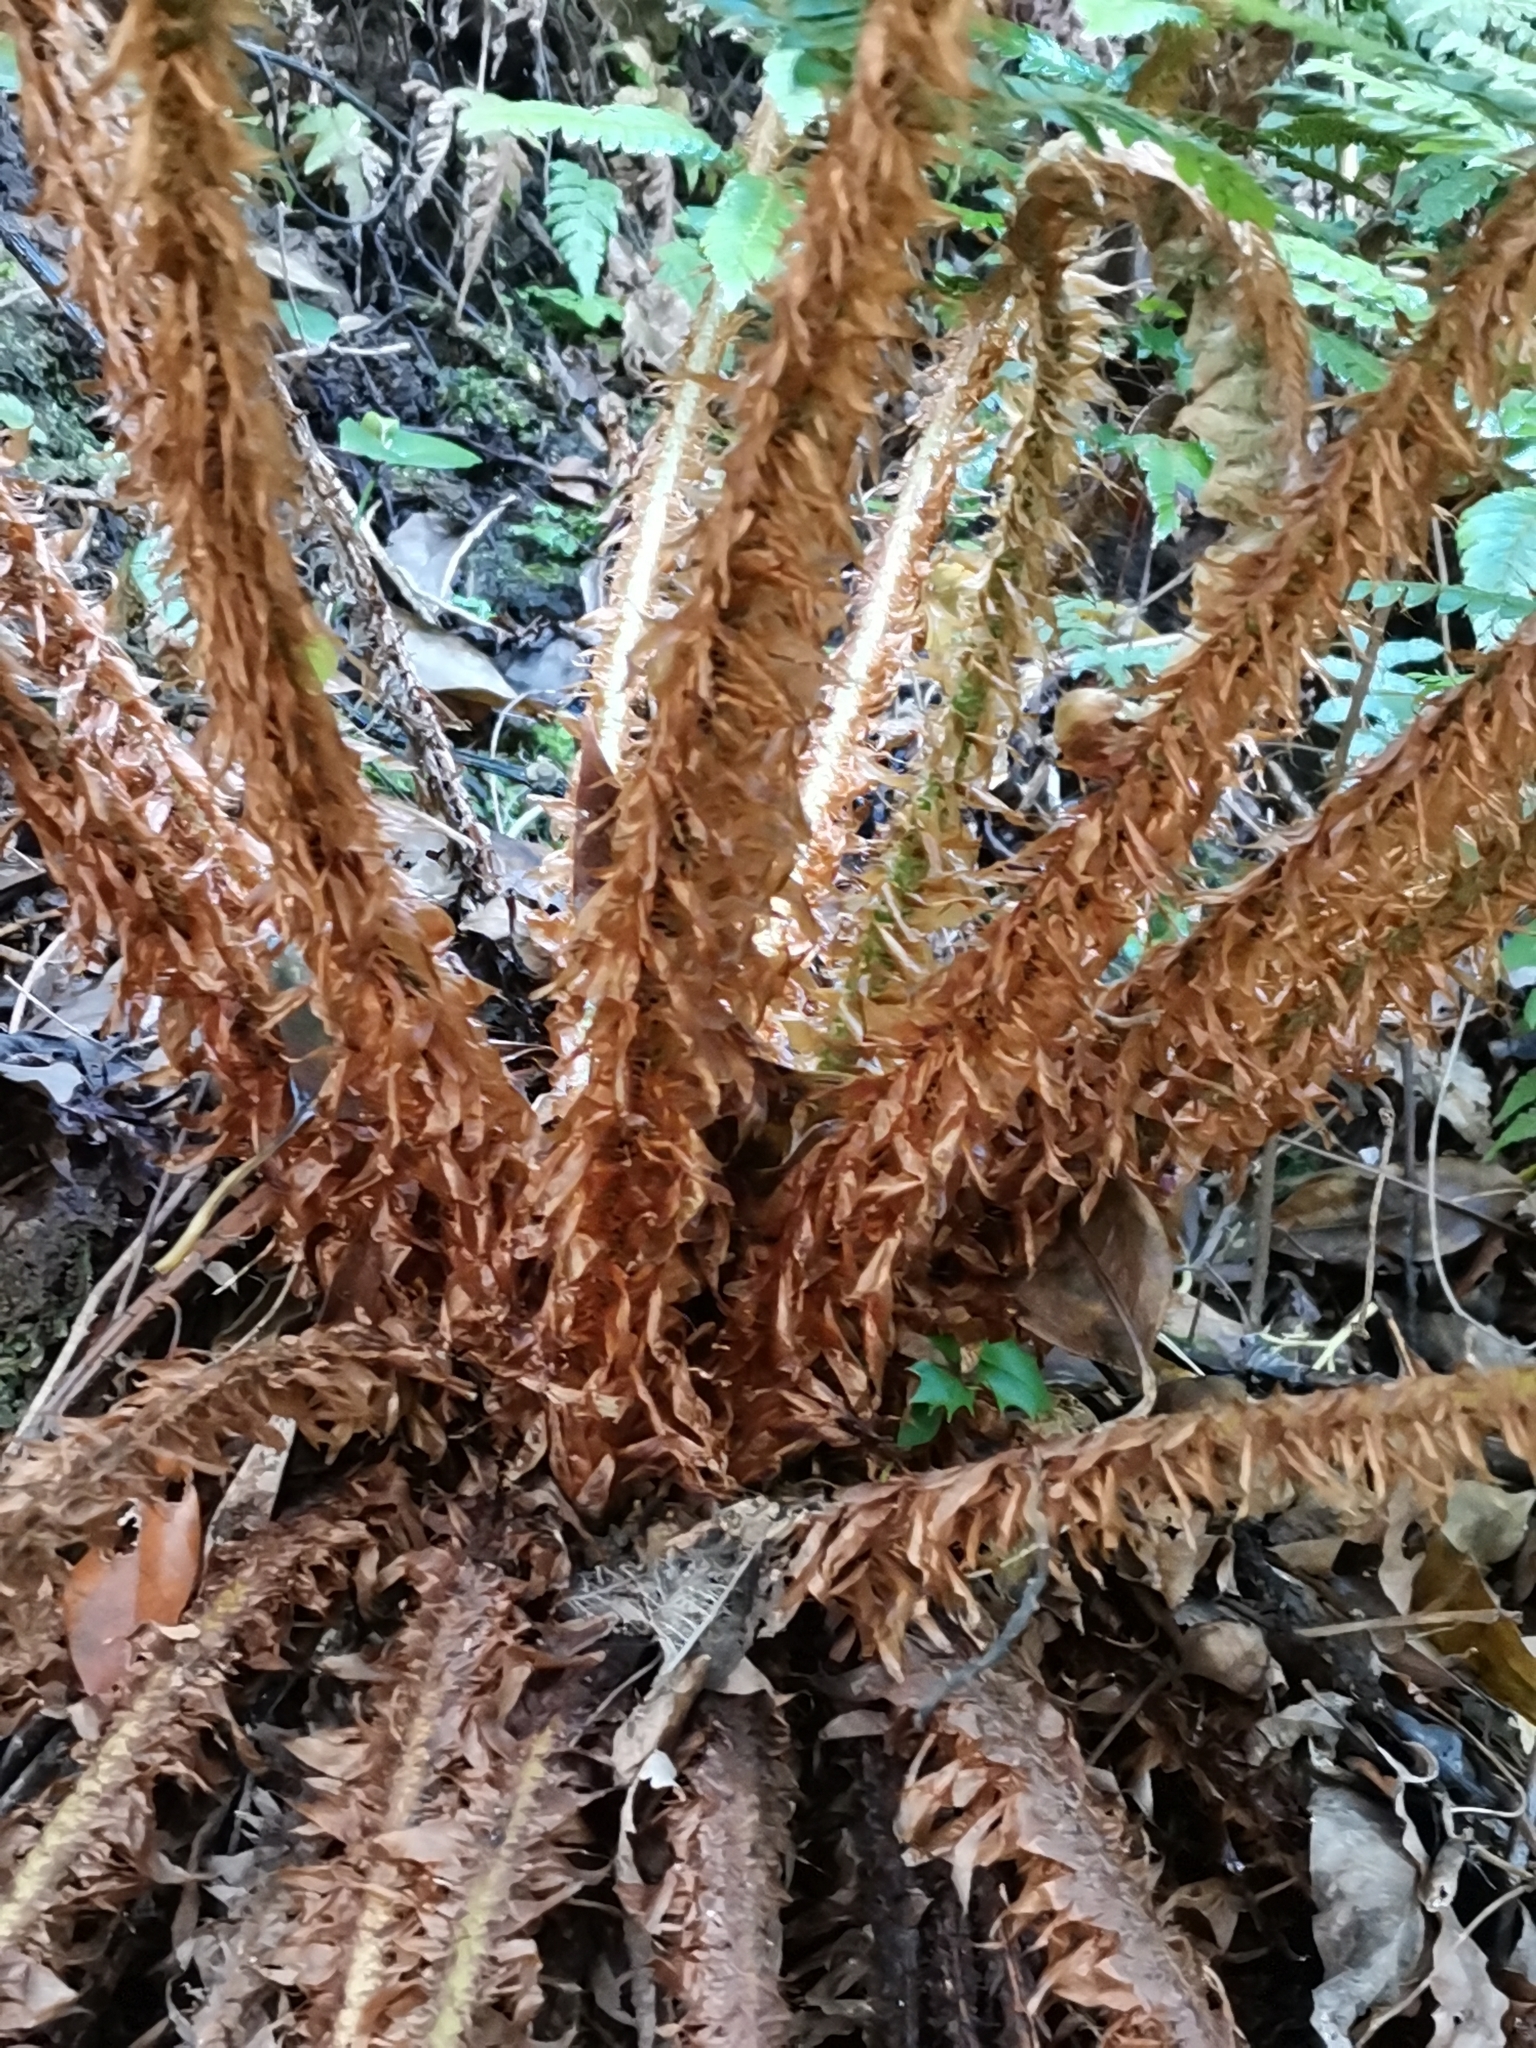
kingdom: Plantae
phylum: Tracheophyta
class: Polypodiopsida
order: Polypodiales
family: Dryopteridaceae
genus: Polystichum
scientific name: Polystichum luctuosum
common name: Korean rockfern
